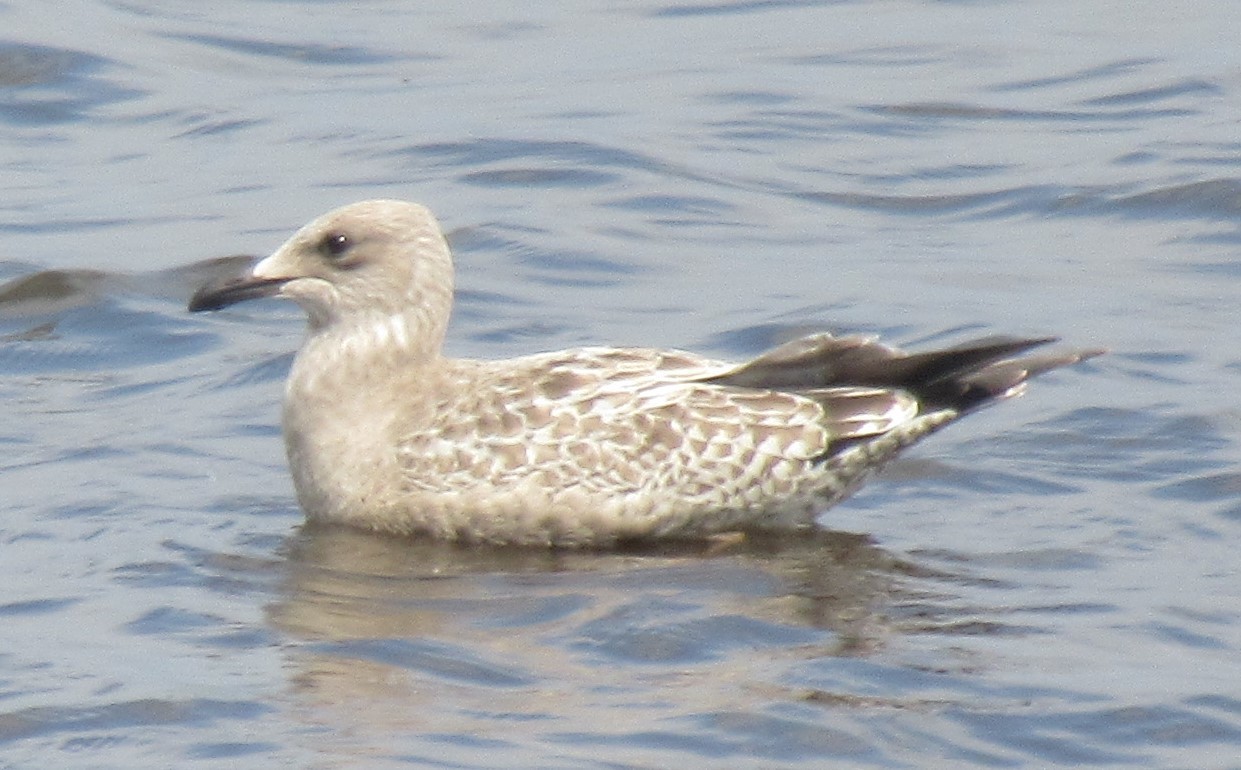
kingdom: Animalia
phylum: Chordata
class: Aves
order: Charadriiformes
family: Laridae
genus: Larus
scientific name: Larus argentatus
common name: Herring gull
